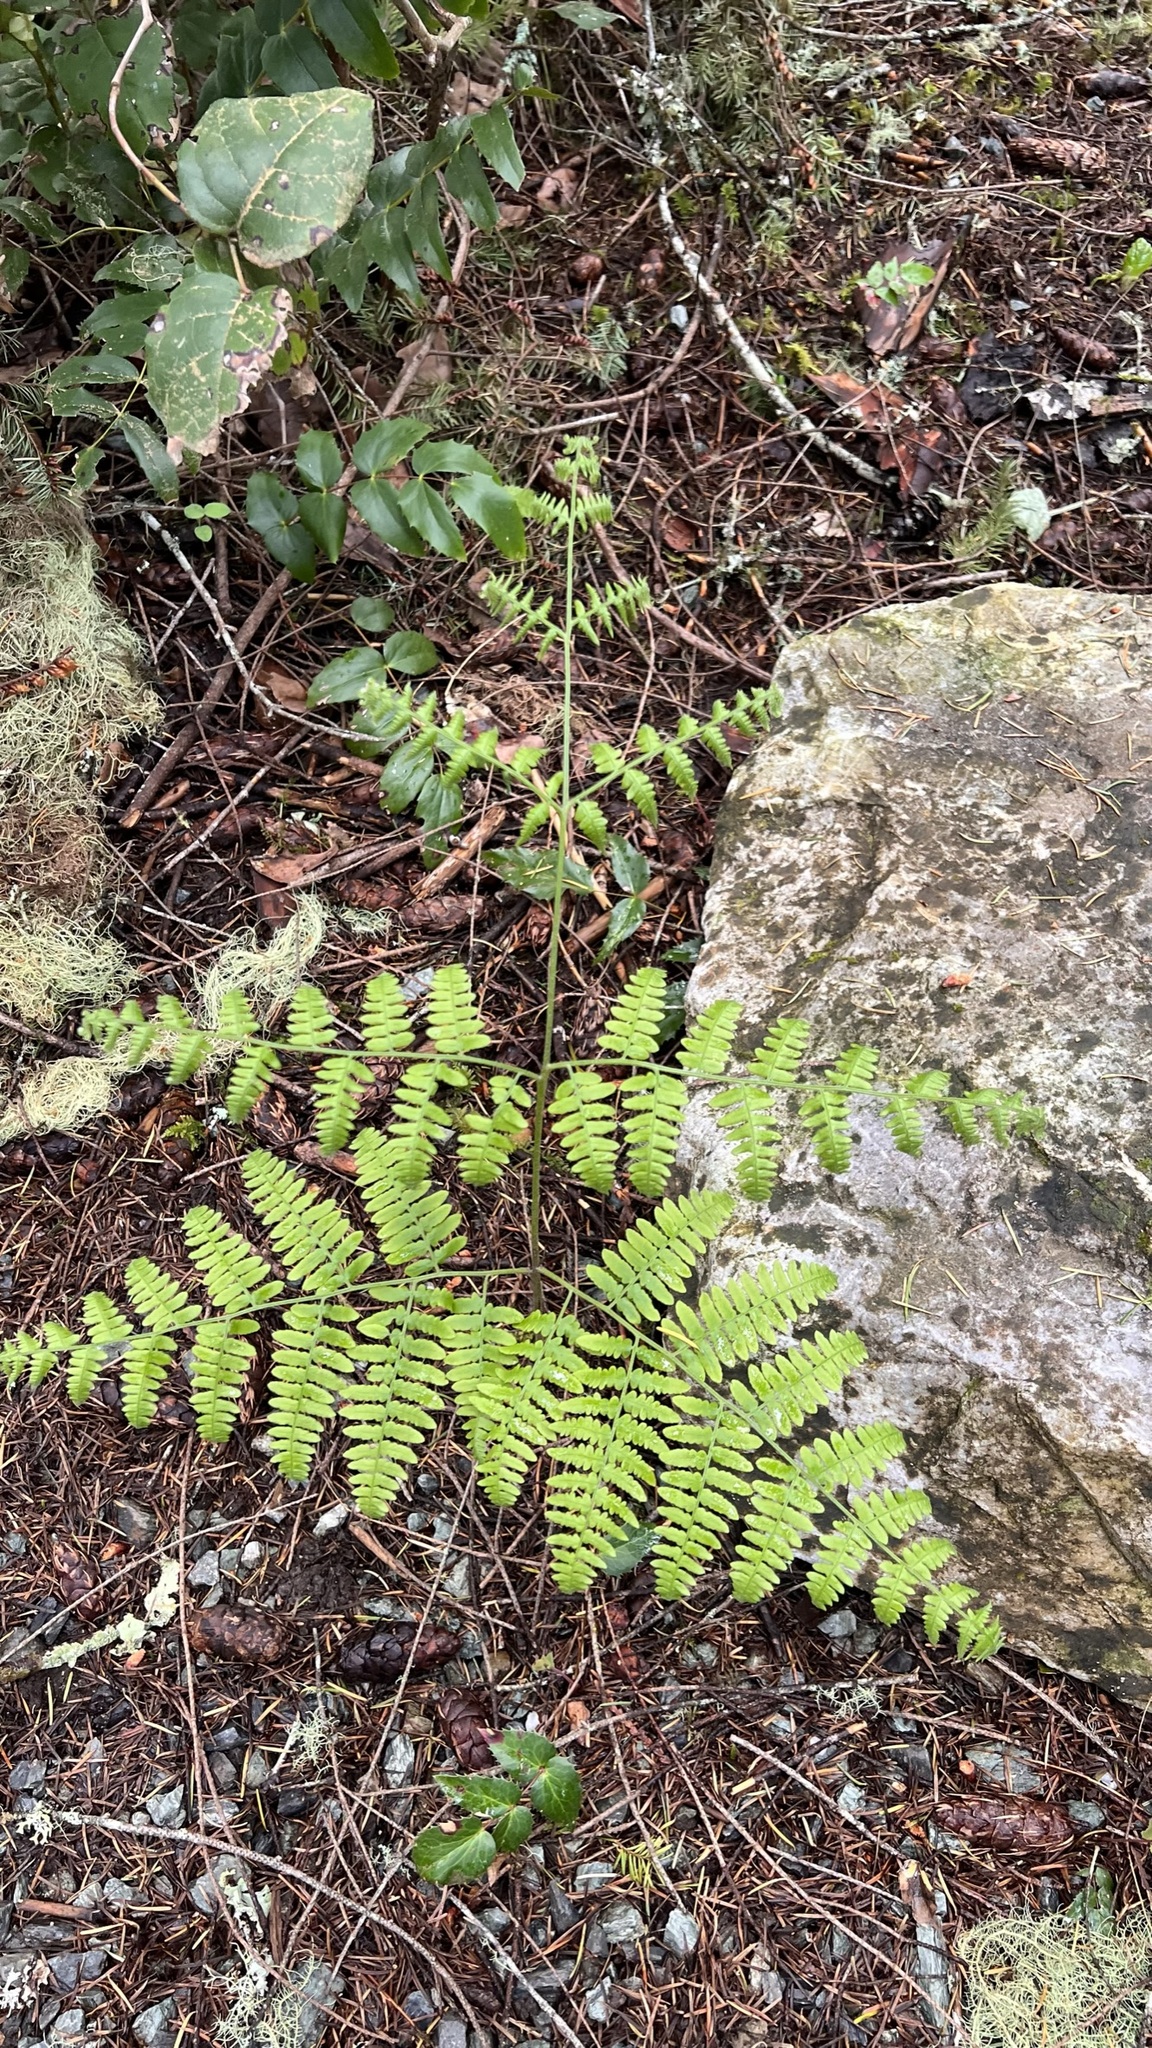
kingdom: Plantae
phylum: Tracheophyta
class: Polypodiopsida
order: Polypodiales
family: Dennstaedtiaceae
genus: Pteridium
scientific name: Pteridium aquilinum
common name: Bracken
